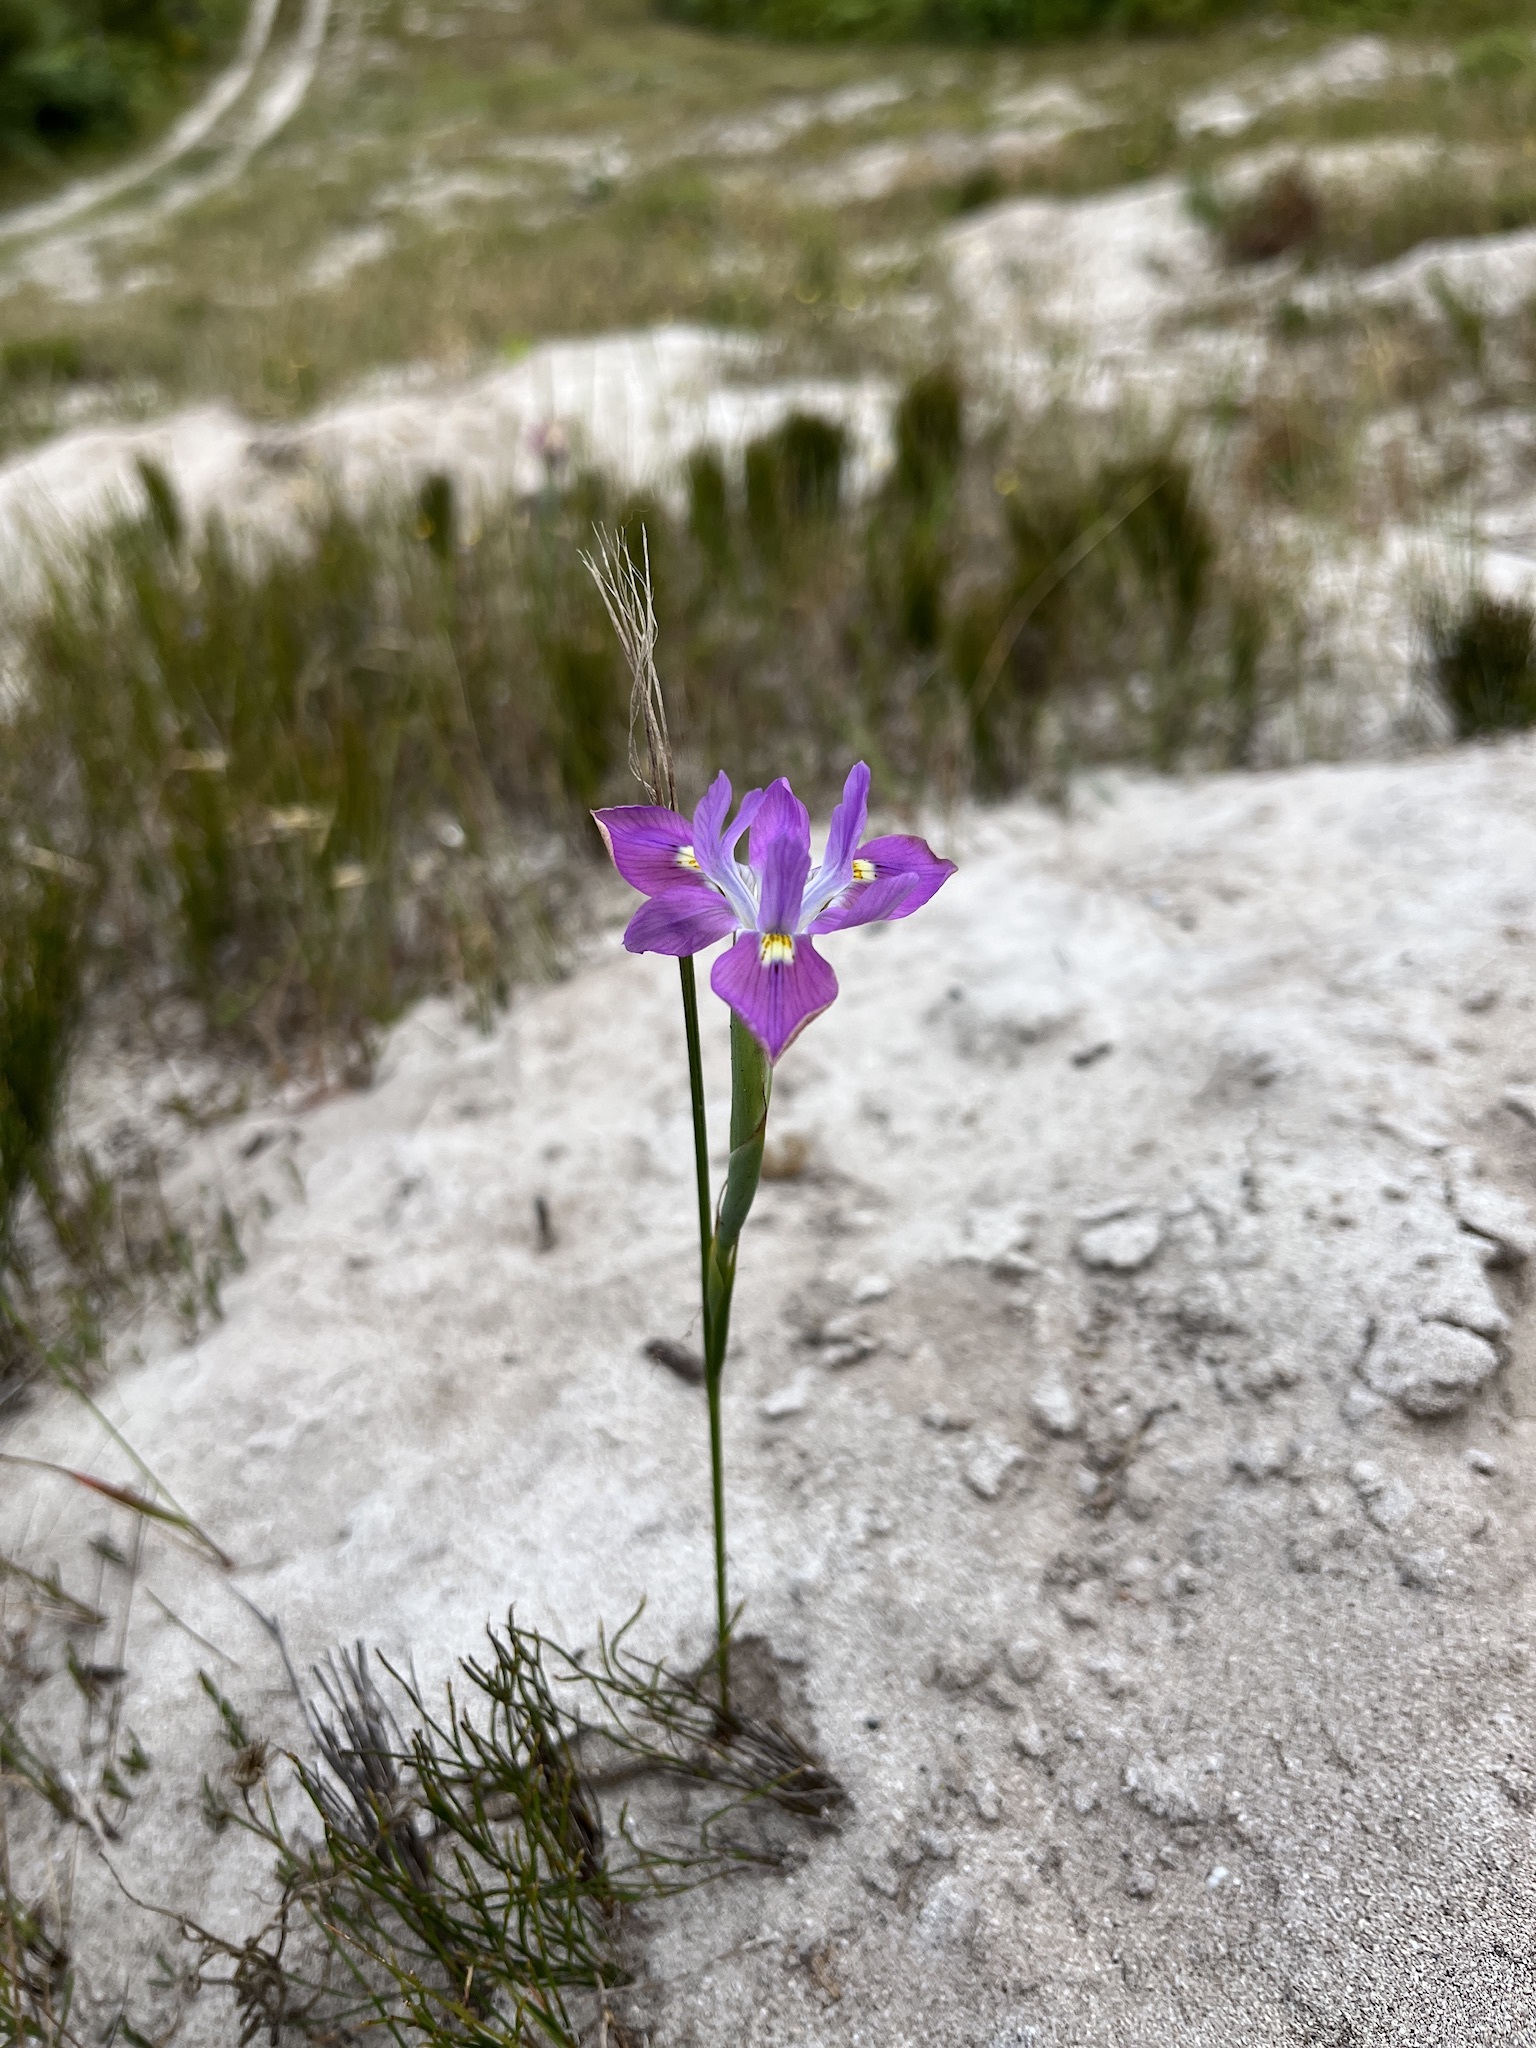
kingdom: Plantae
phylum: Tracheophyta
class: Liliopsida
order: Asparagales
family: Iridaceae
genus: Moraea
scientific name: Moraea fugax
